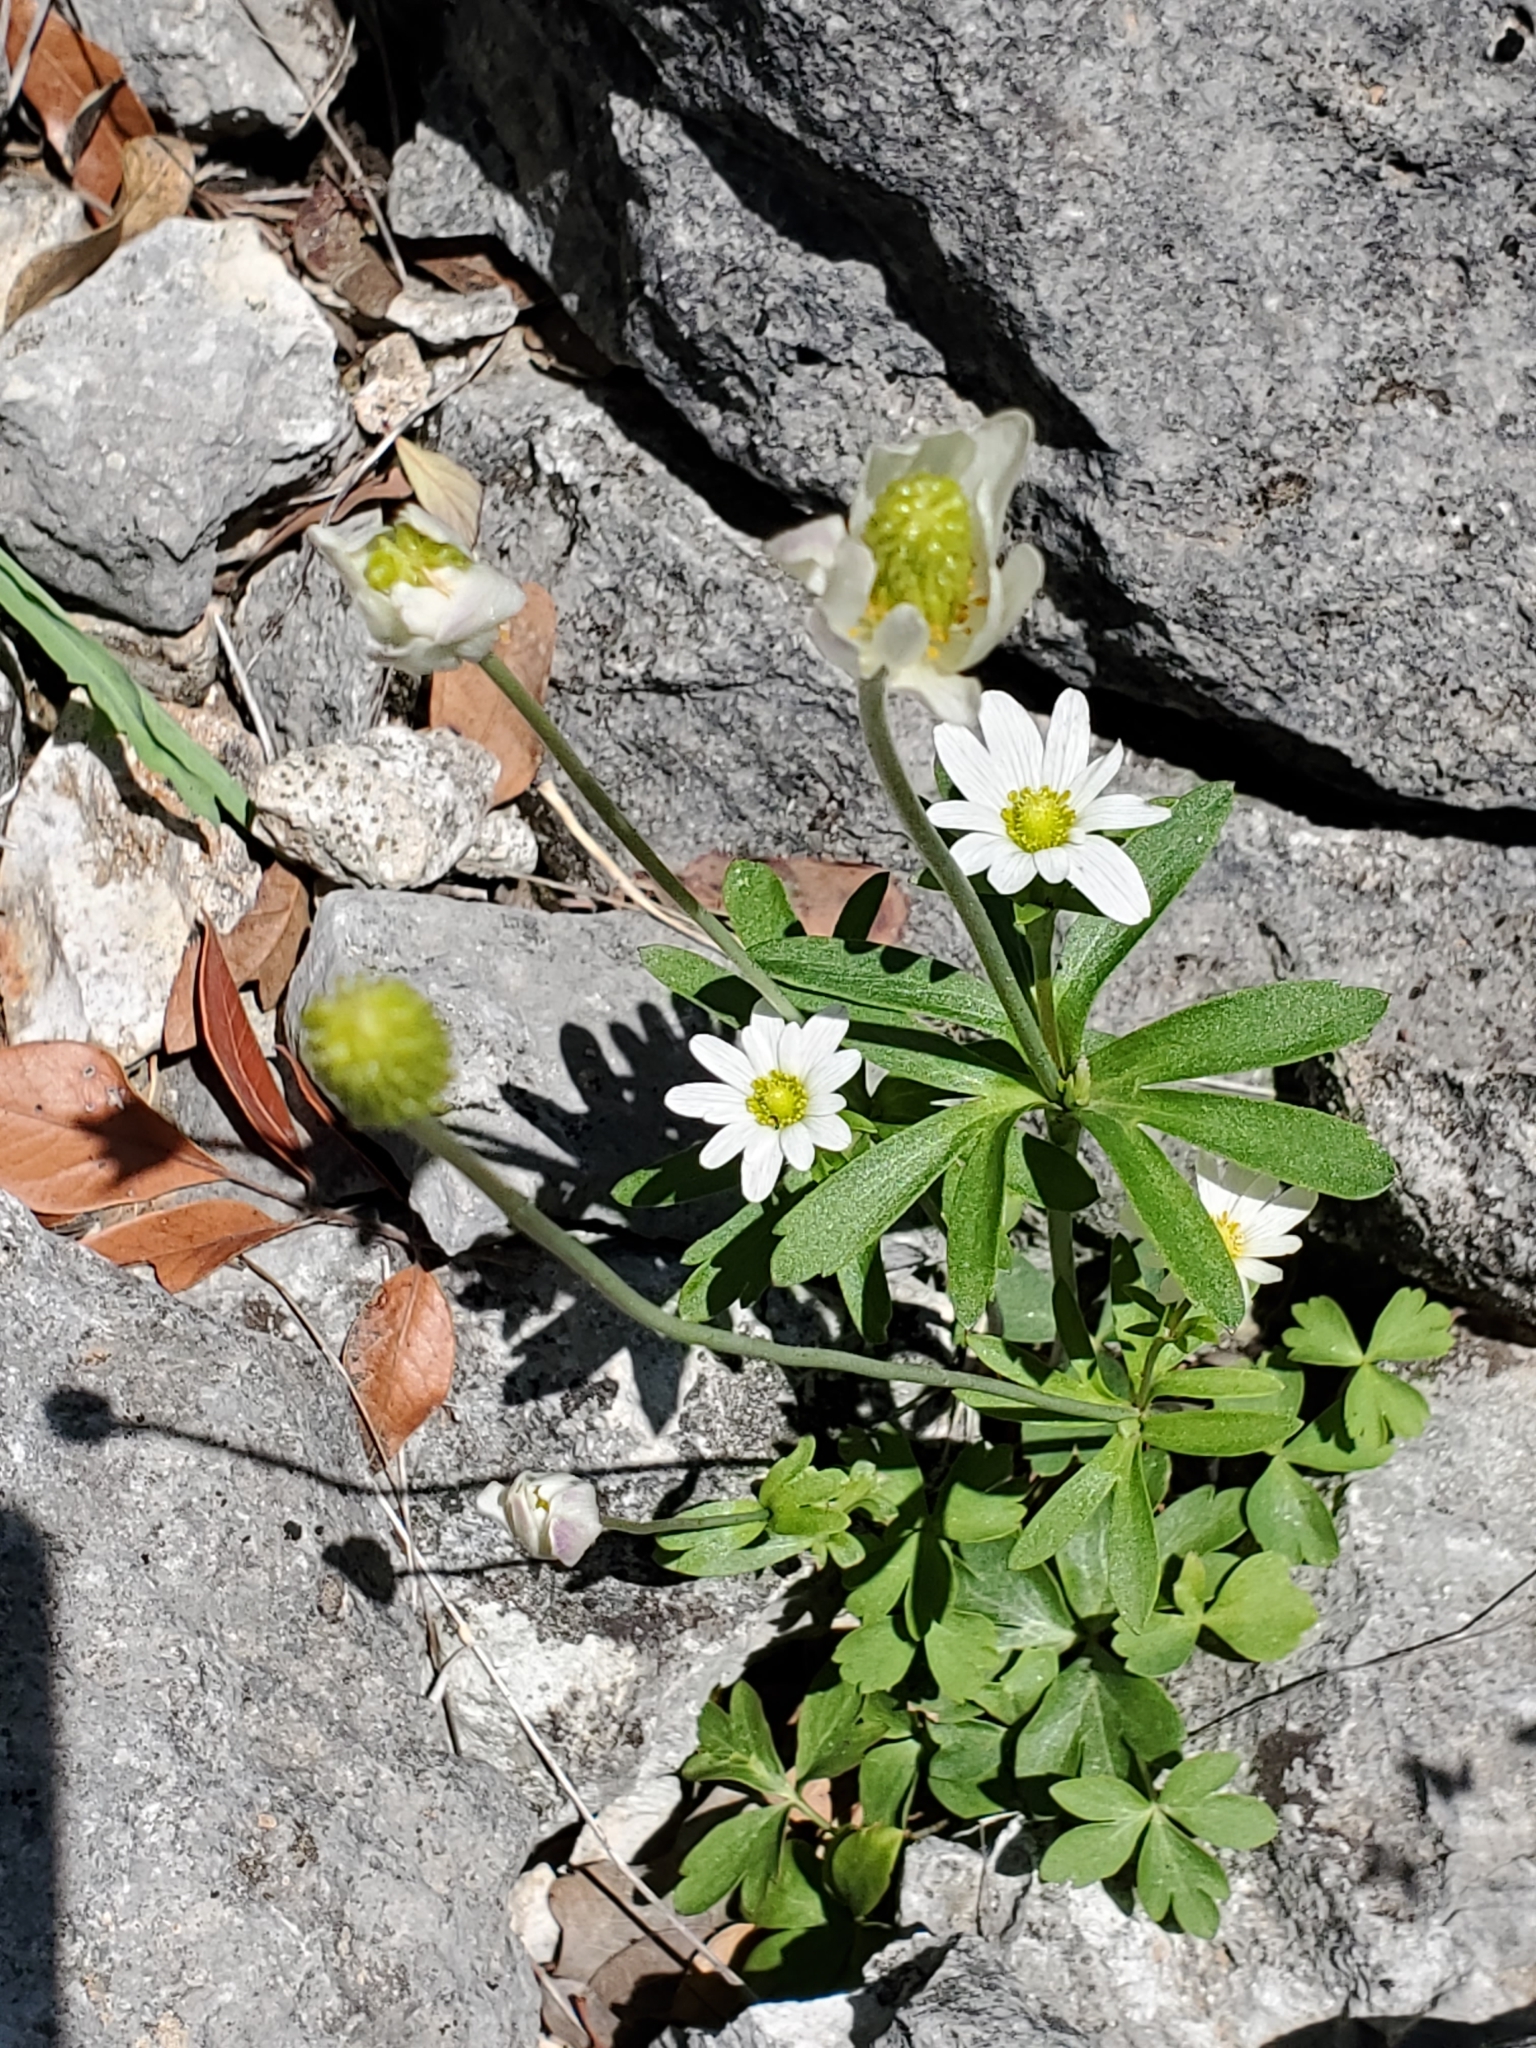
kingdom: Plantae
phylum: Tracheophyta
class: Magnoliopsida
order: Ranunculales
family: Ranunculaceae
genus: Anemone
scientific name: Anemone edwardsiana
